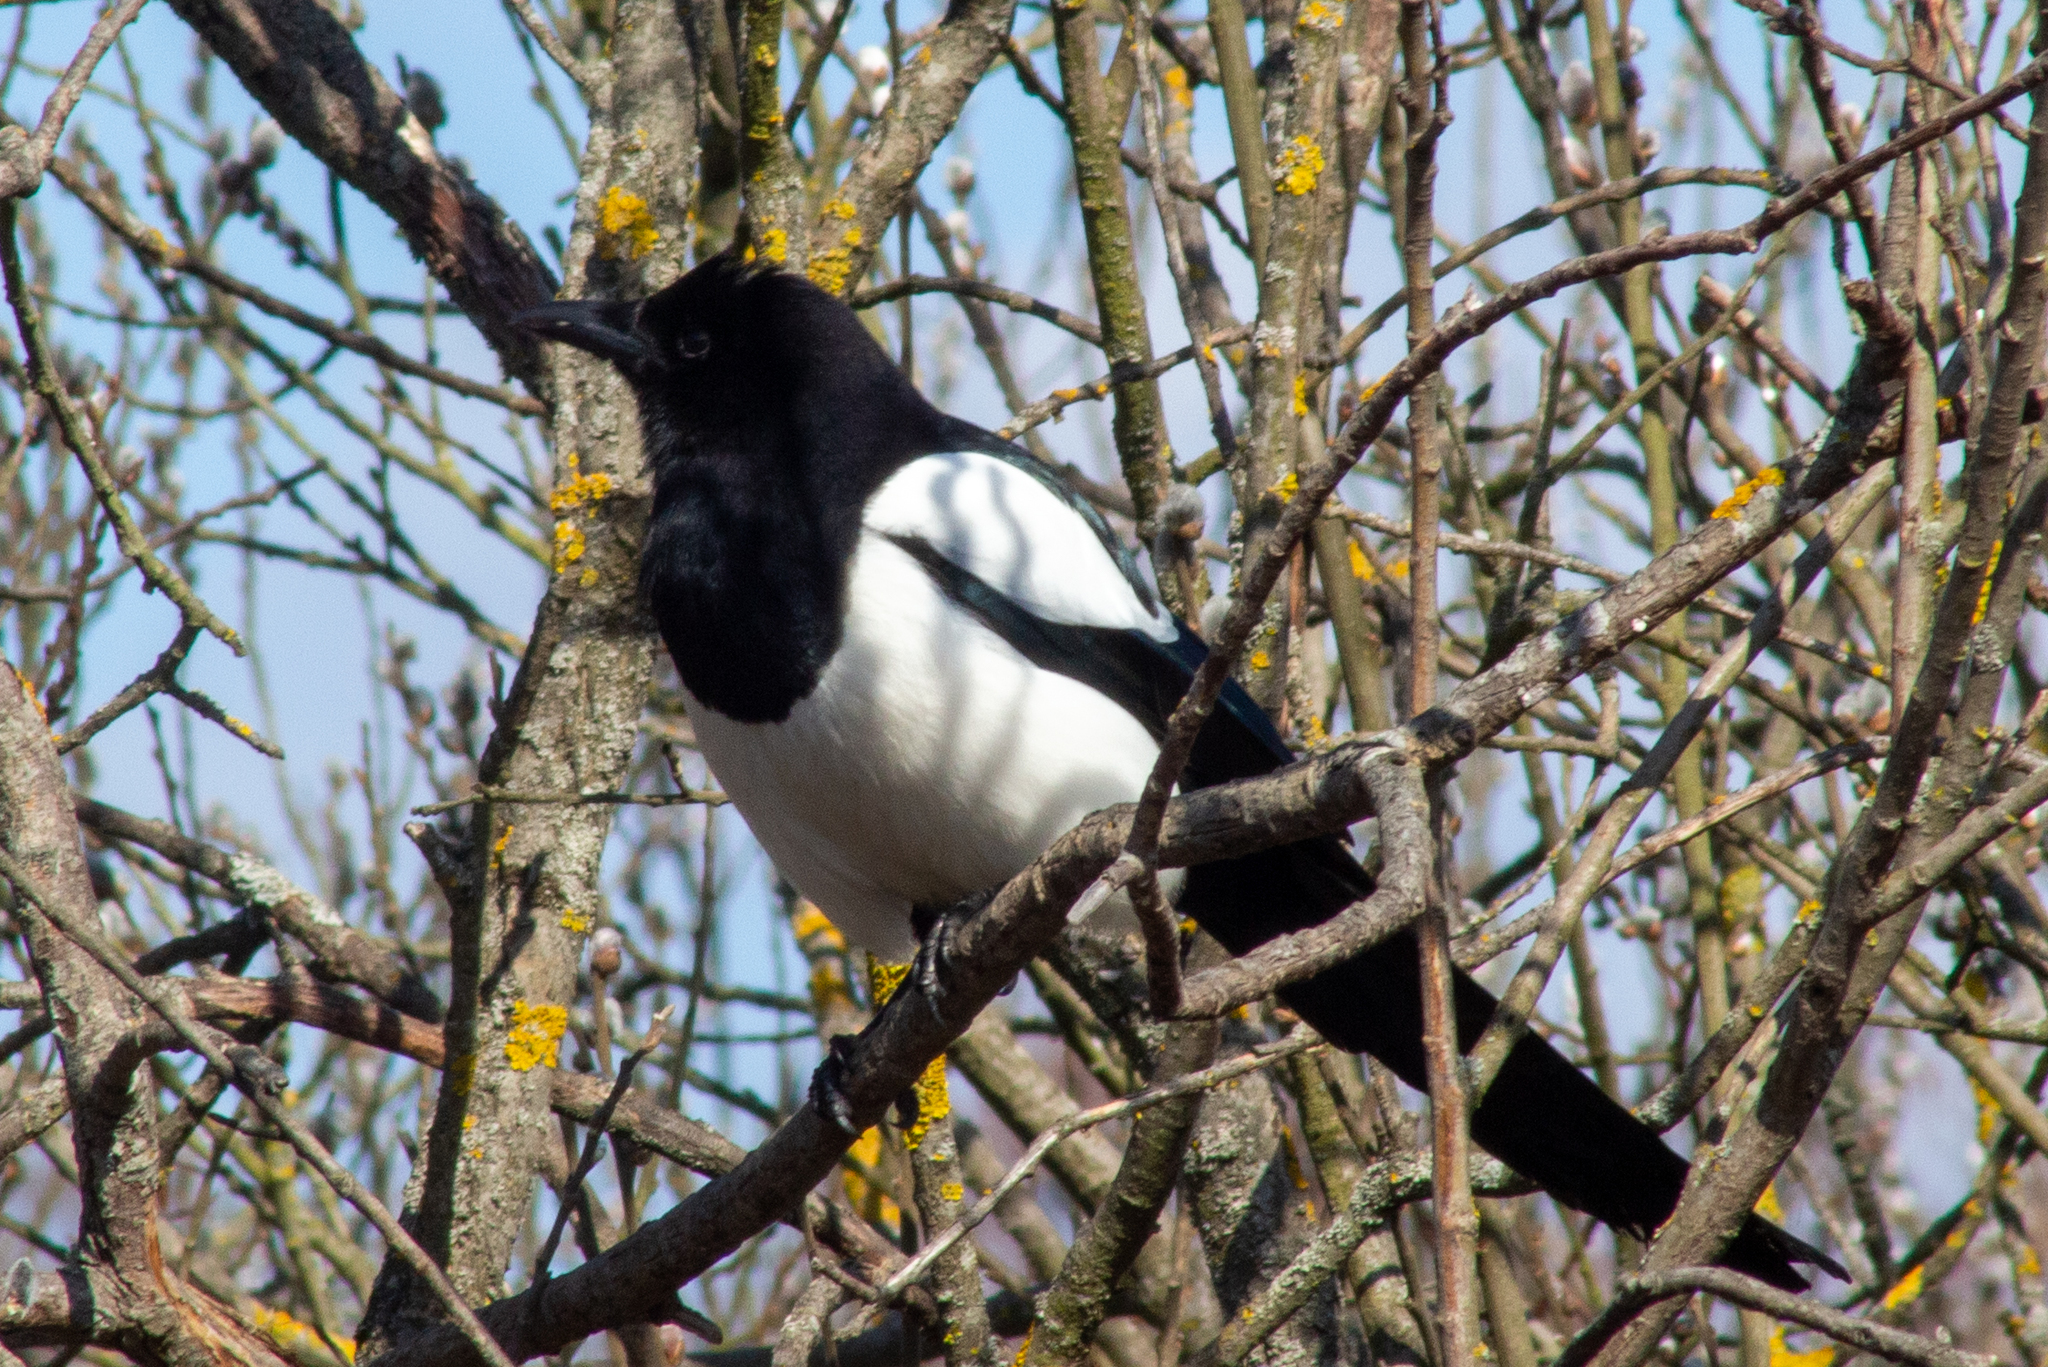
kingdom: Animalia
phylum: Chordata
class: Aves
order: Passeriformes
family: Corvidae
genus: Pica
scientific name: Pica pica
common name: Eurasian magpie
